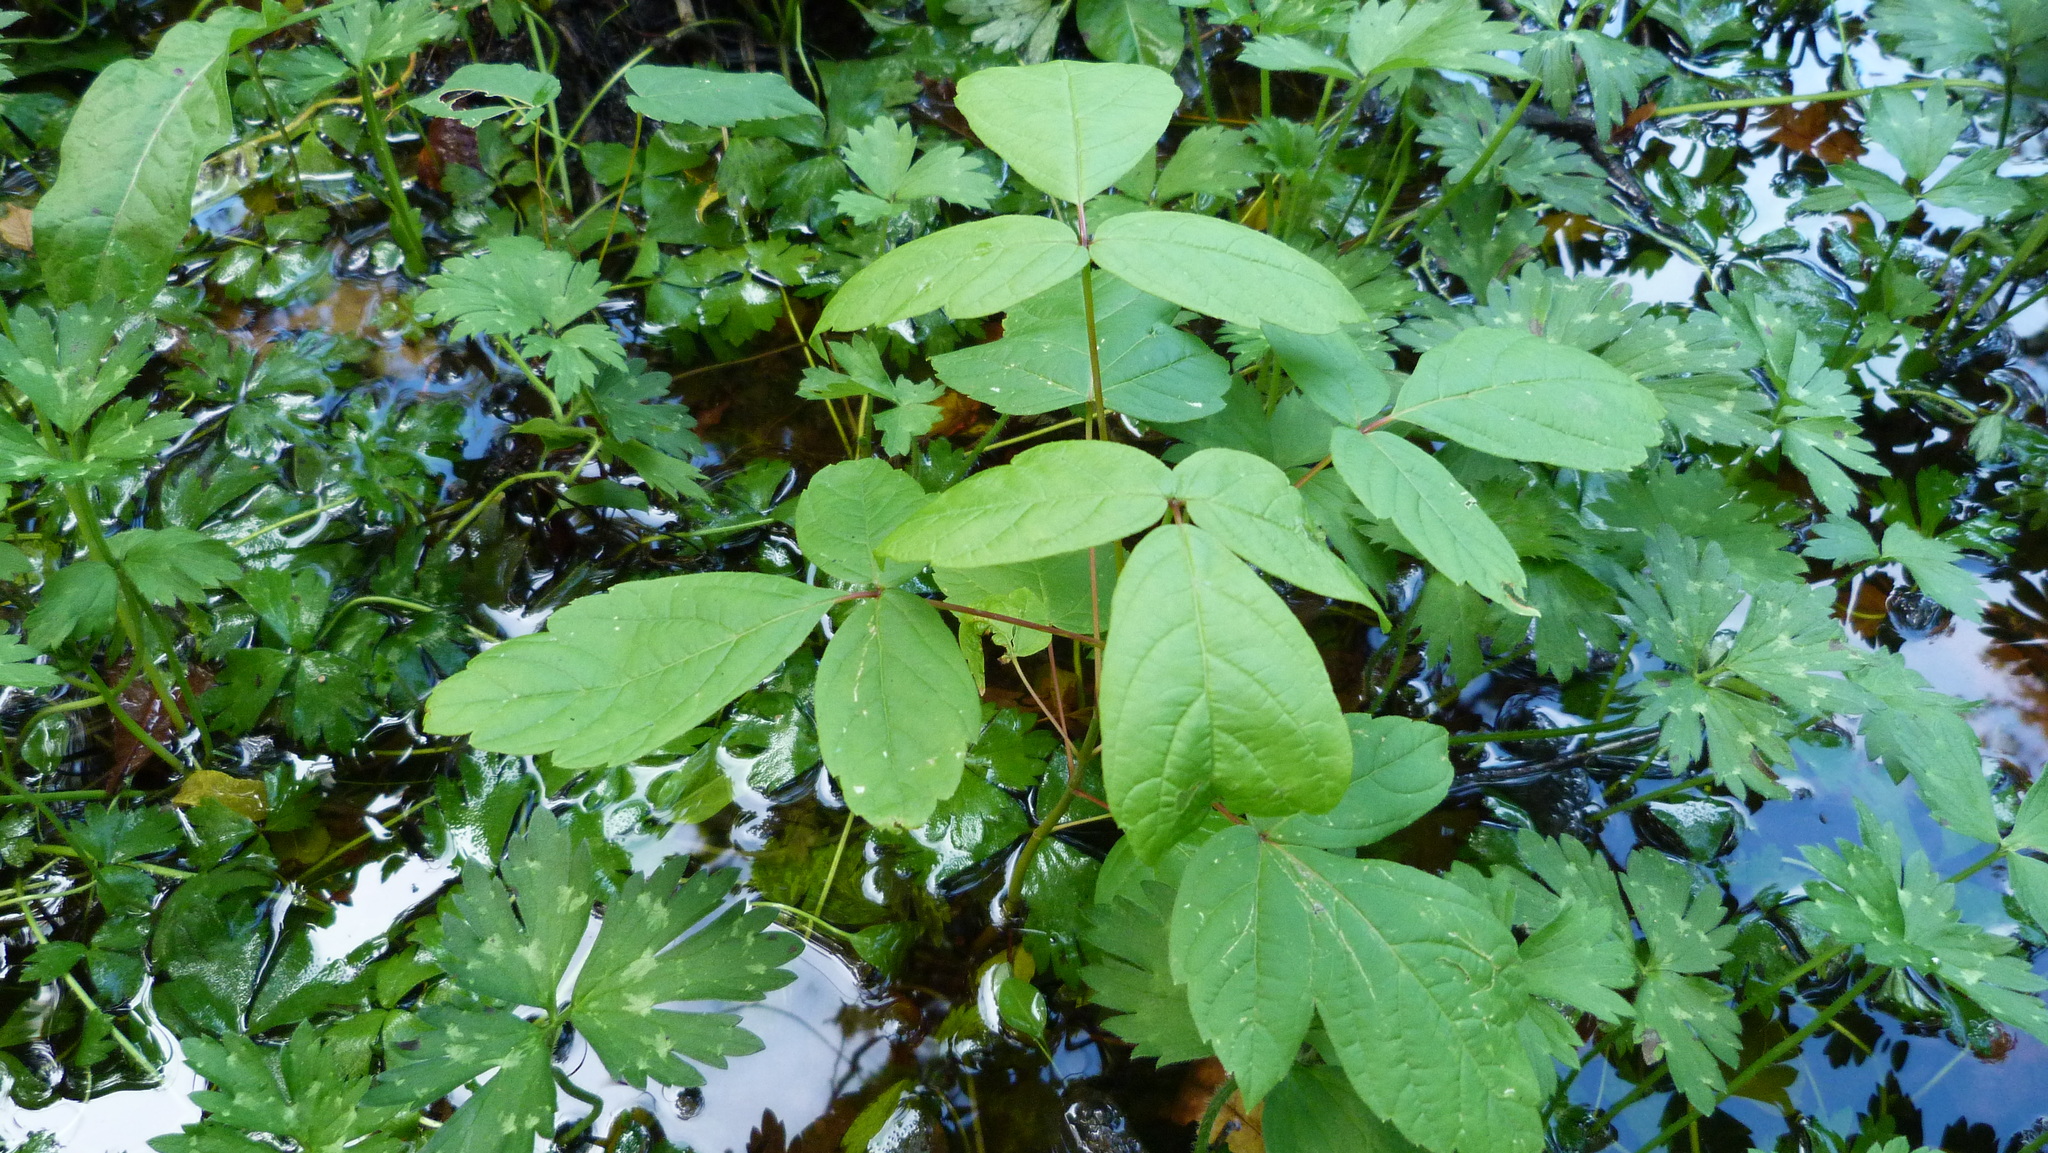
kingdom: Plantae
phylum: Tracheophyta
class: Magnoliopsida
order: Sapindales
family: Sapindaceae
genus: Acer
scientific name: Acer negundo
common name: Ashleaf maple
